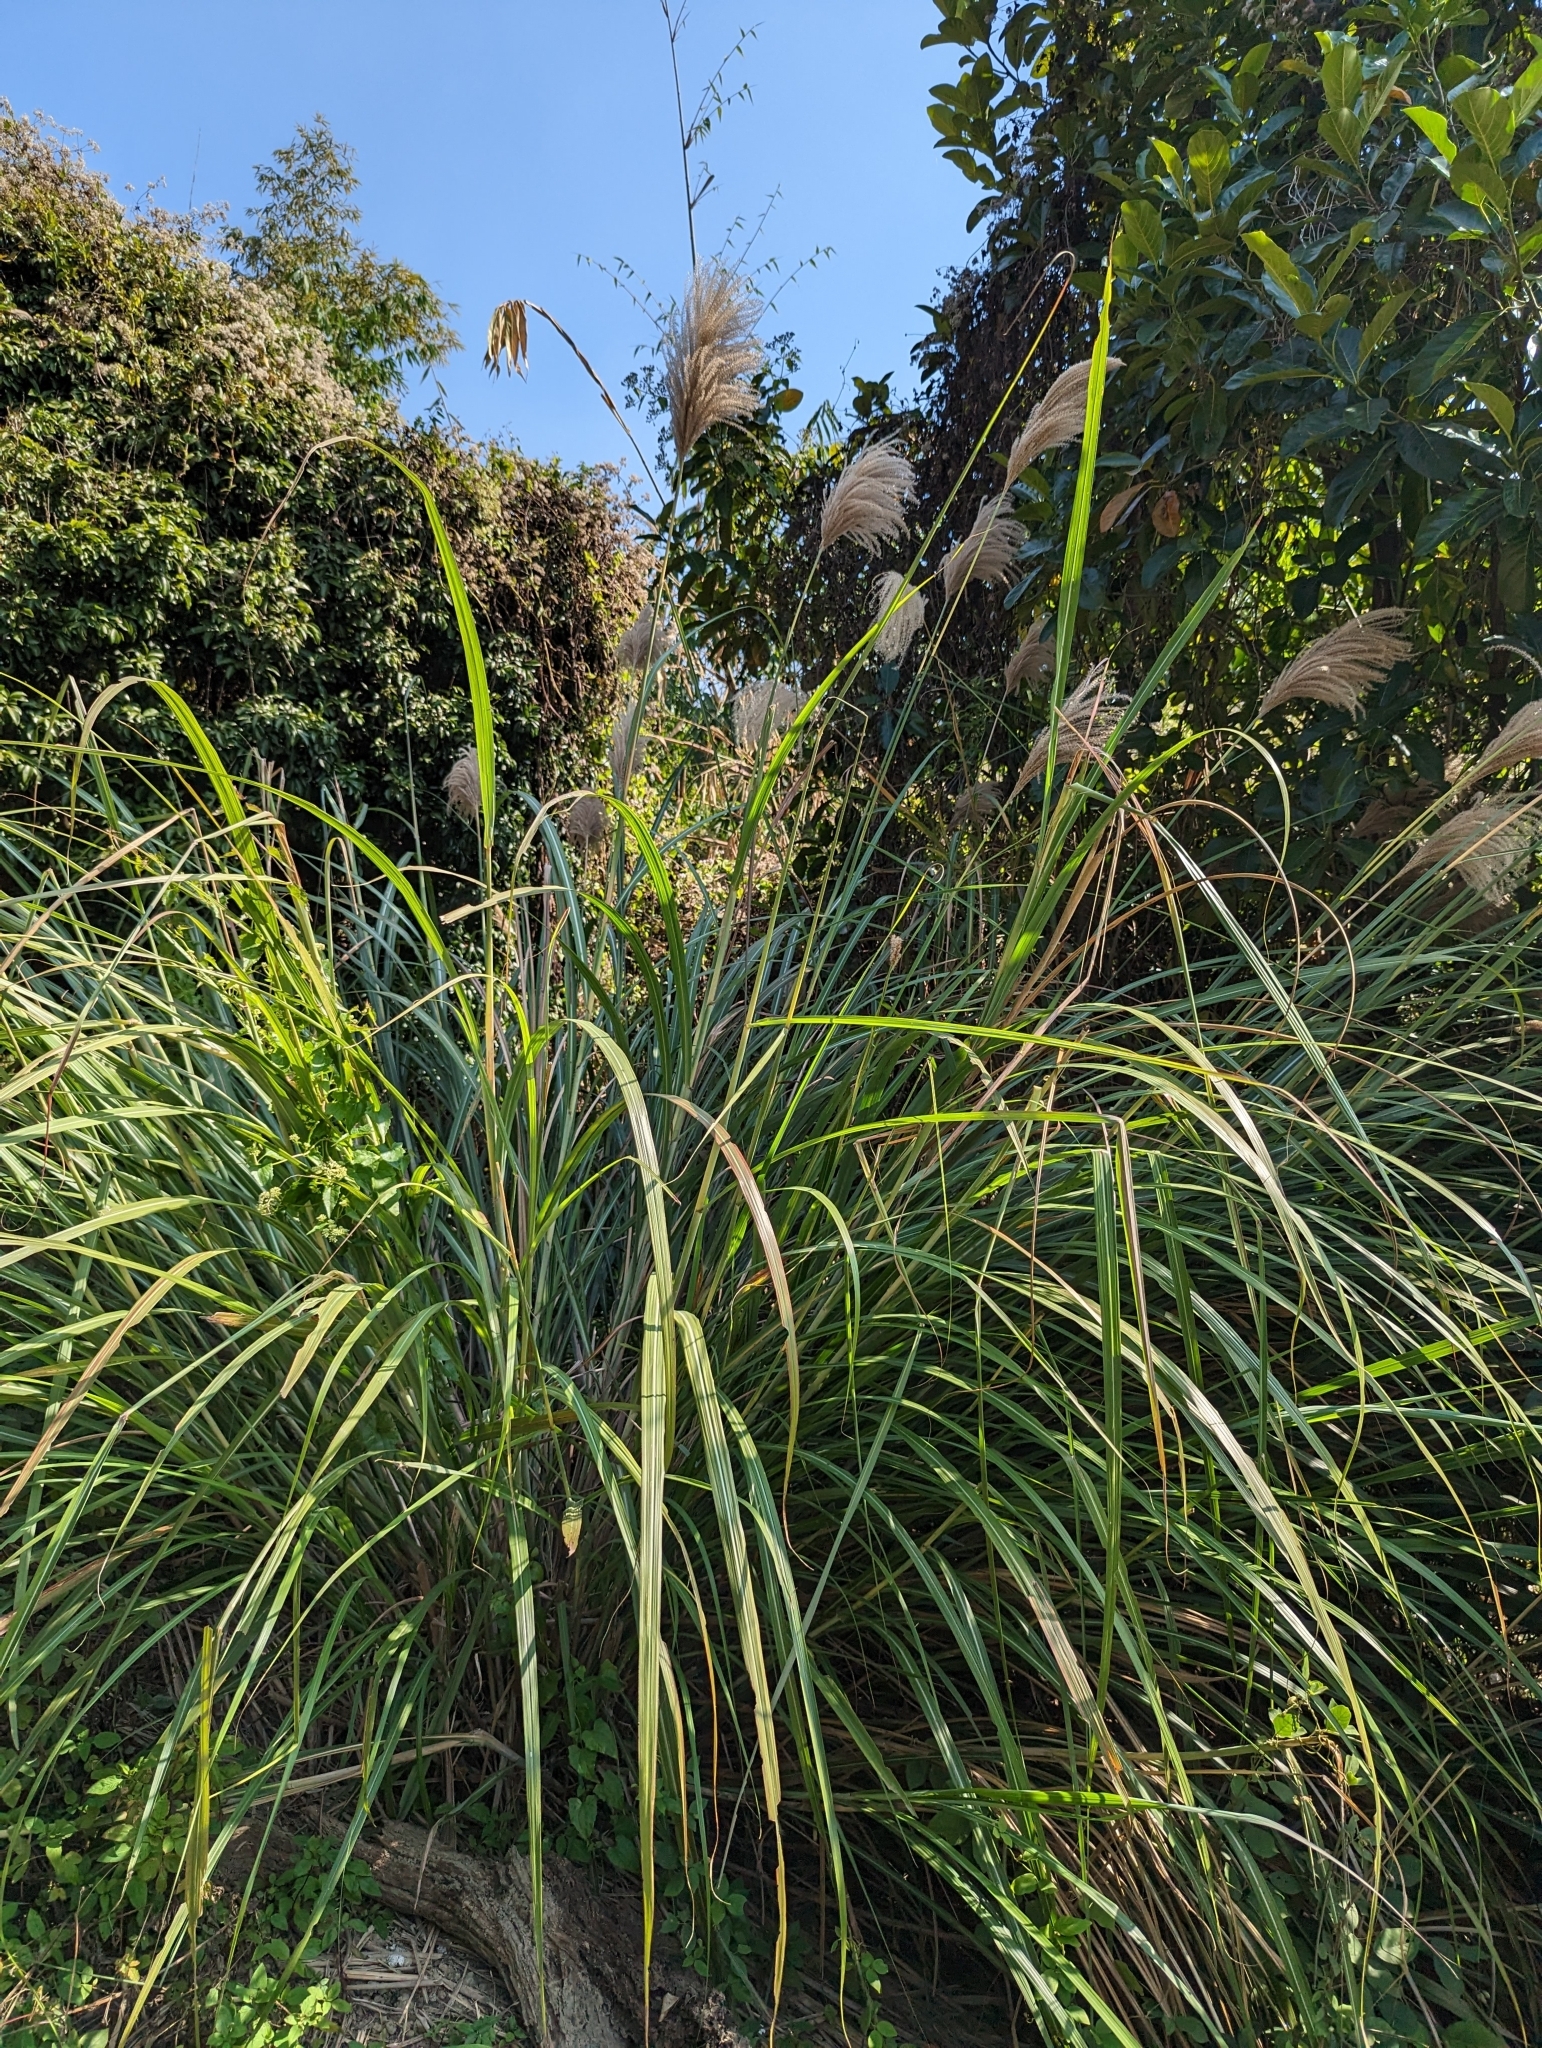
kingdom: Plantae
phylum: Tracheophyta
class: Liliopsida
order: Poales
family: Poaceae
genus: Miscanthus
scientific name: Miscanthus sinensis
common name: Chinese silvergrass
